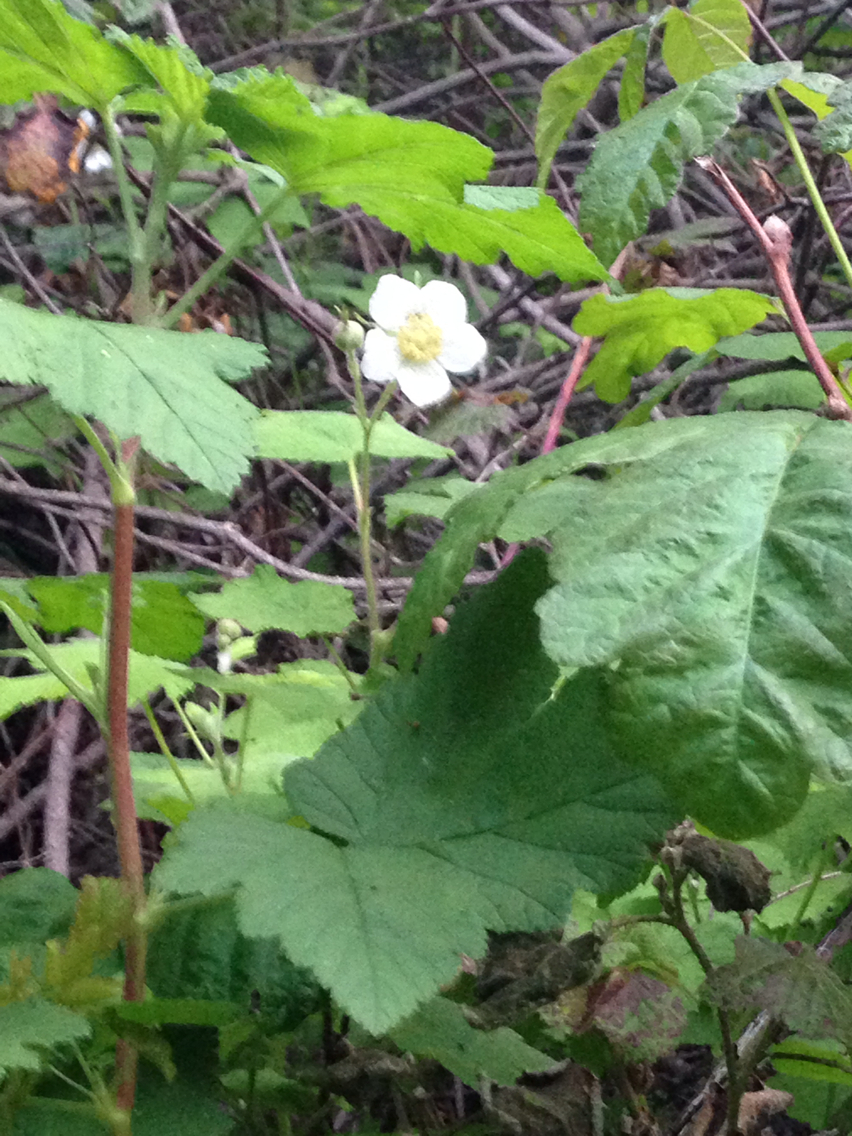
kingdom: Plantae
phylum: Tracheophyta
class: Magnoliopsida
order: Rosales
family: Rosaceae
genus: Rubus
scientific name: Rubus parviflorus
